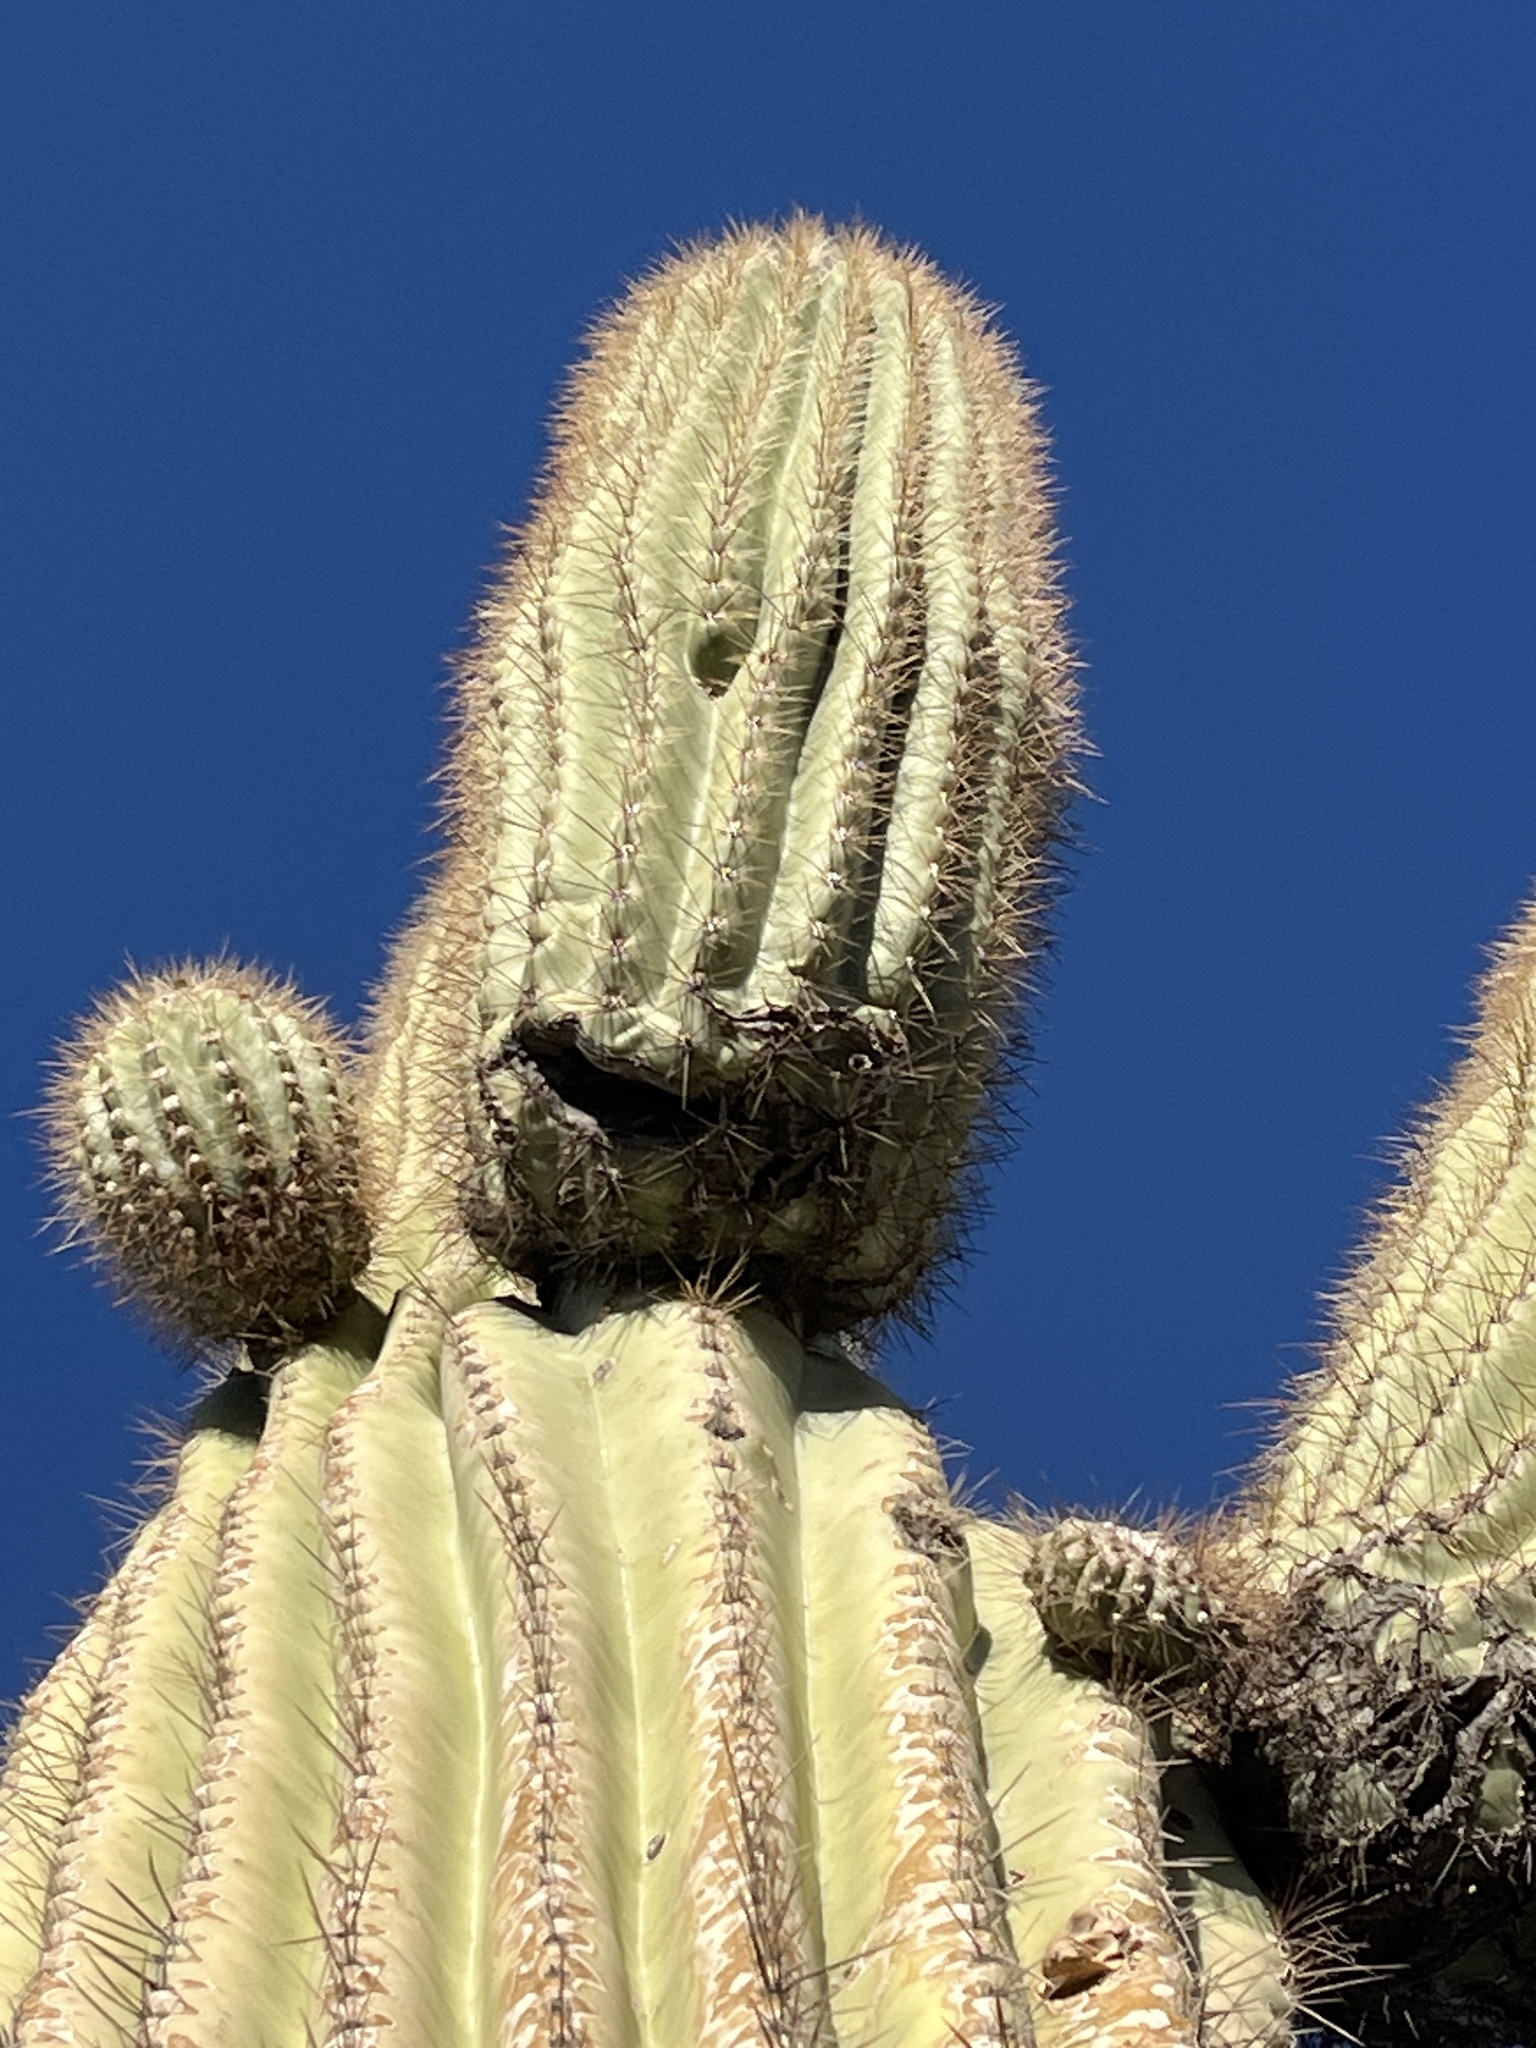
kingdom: Plantae
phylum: Tracheophyta
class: Magnoliopsida
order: Caryophyllales
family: Cactaceae
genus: Carnegiea
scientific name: Carnegiea gigantea
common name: Saguaro
